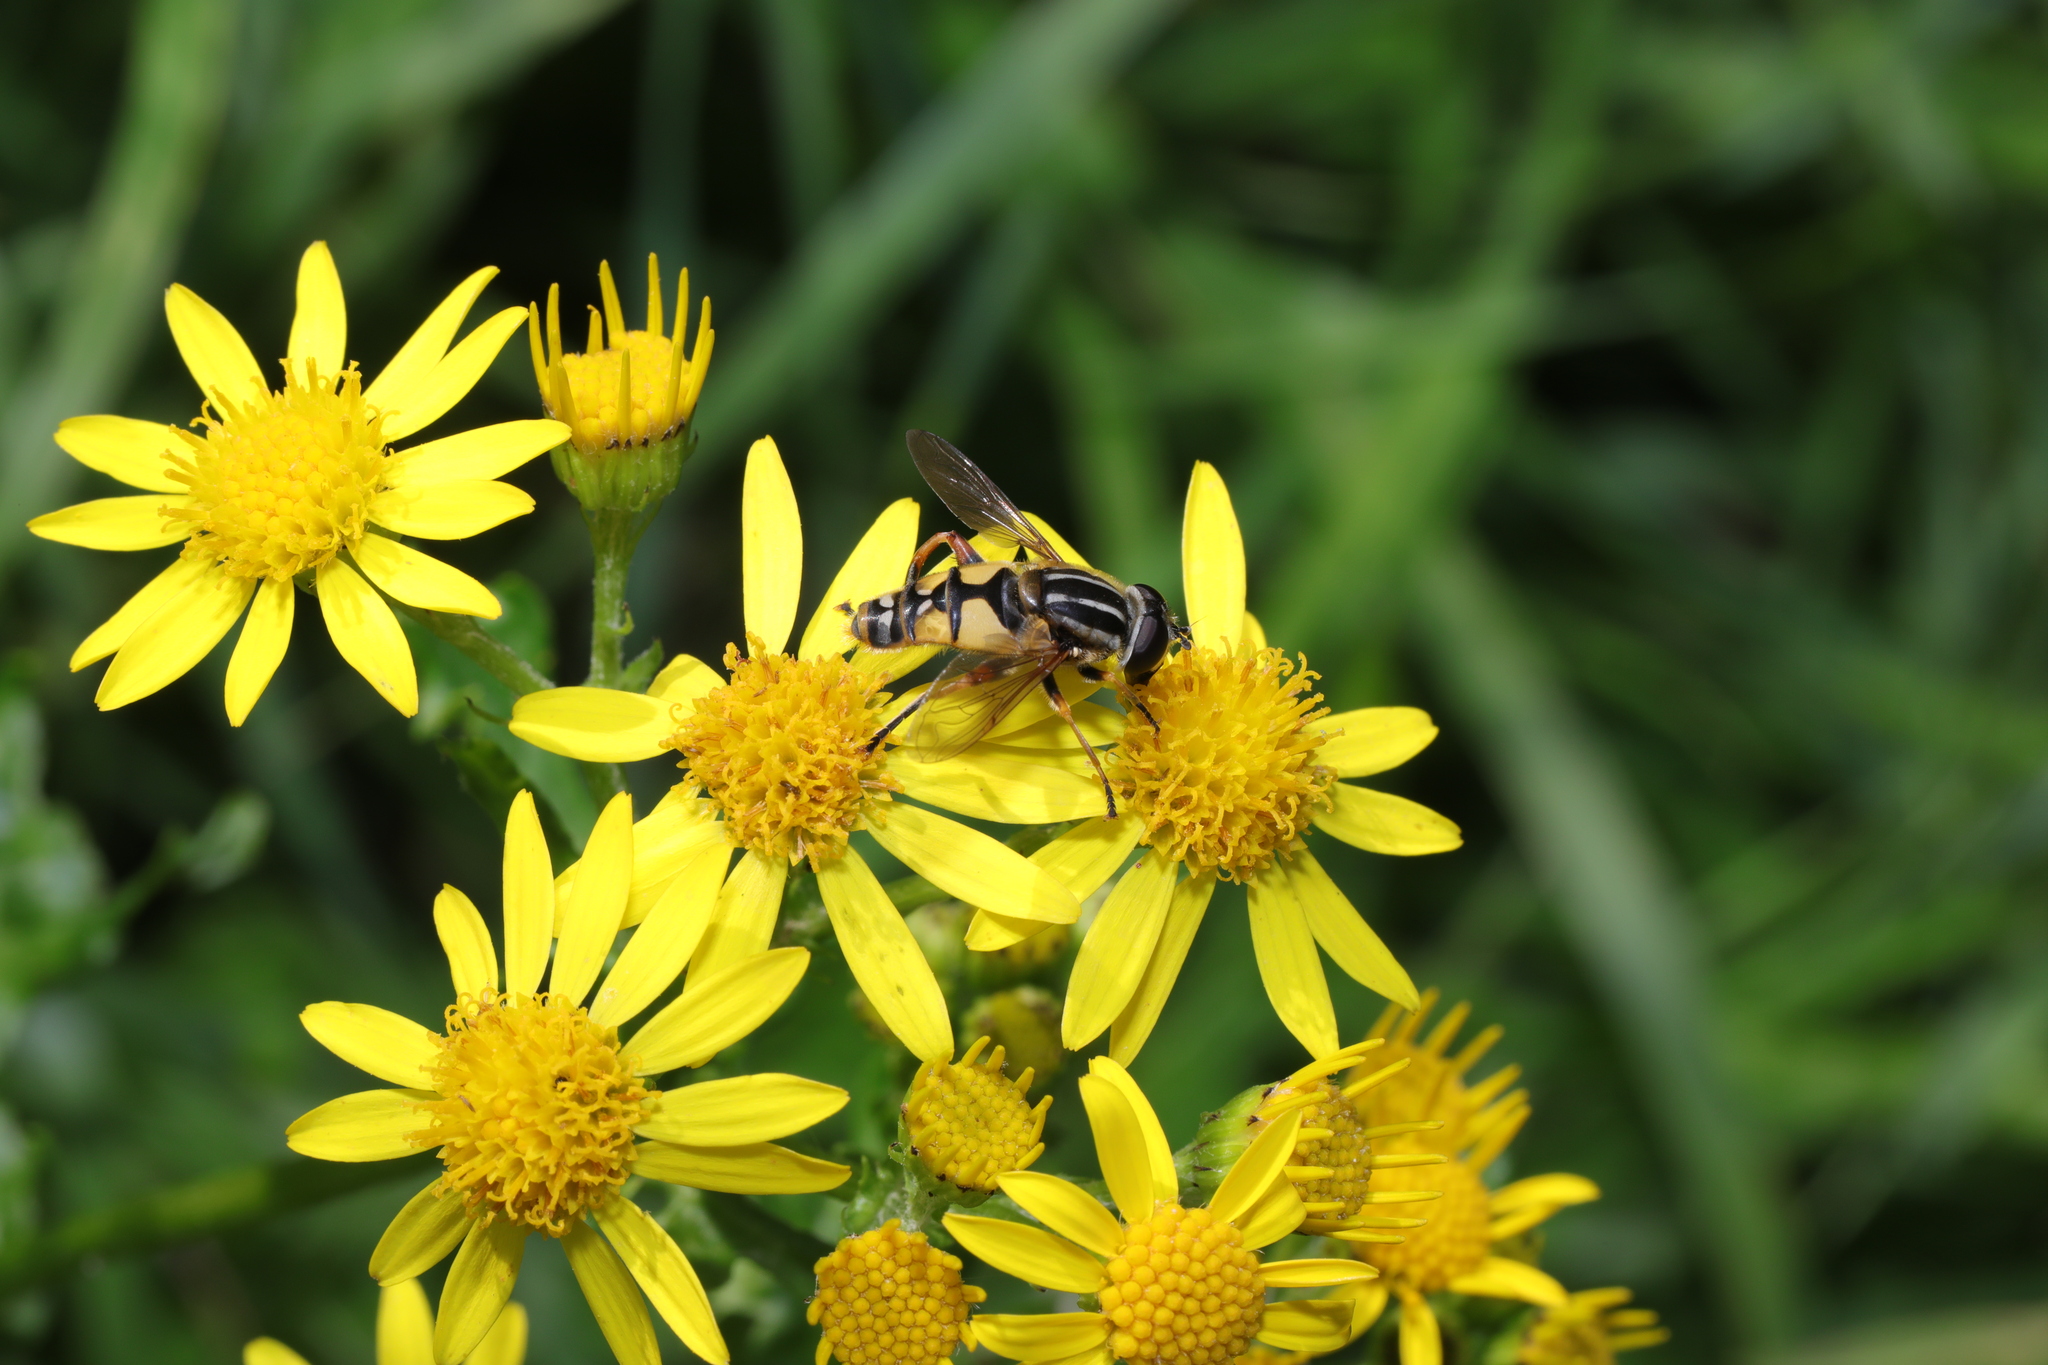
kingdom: Animalia
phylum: Arthropoda
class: Insecta
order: Diptera
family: Syrphidae
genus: Helophilus
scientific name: Helophilus pendulus
